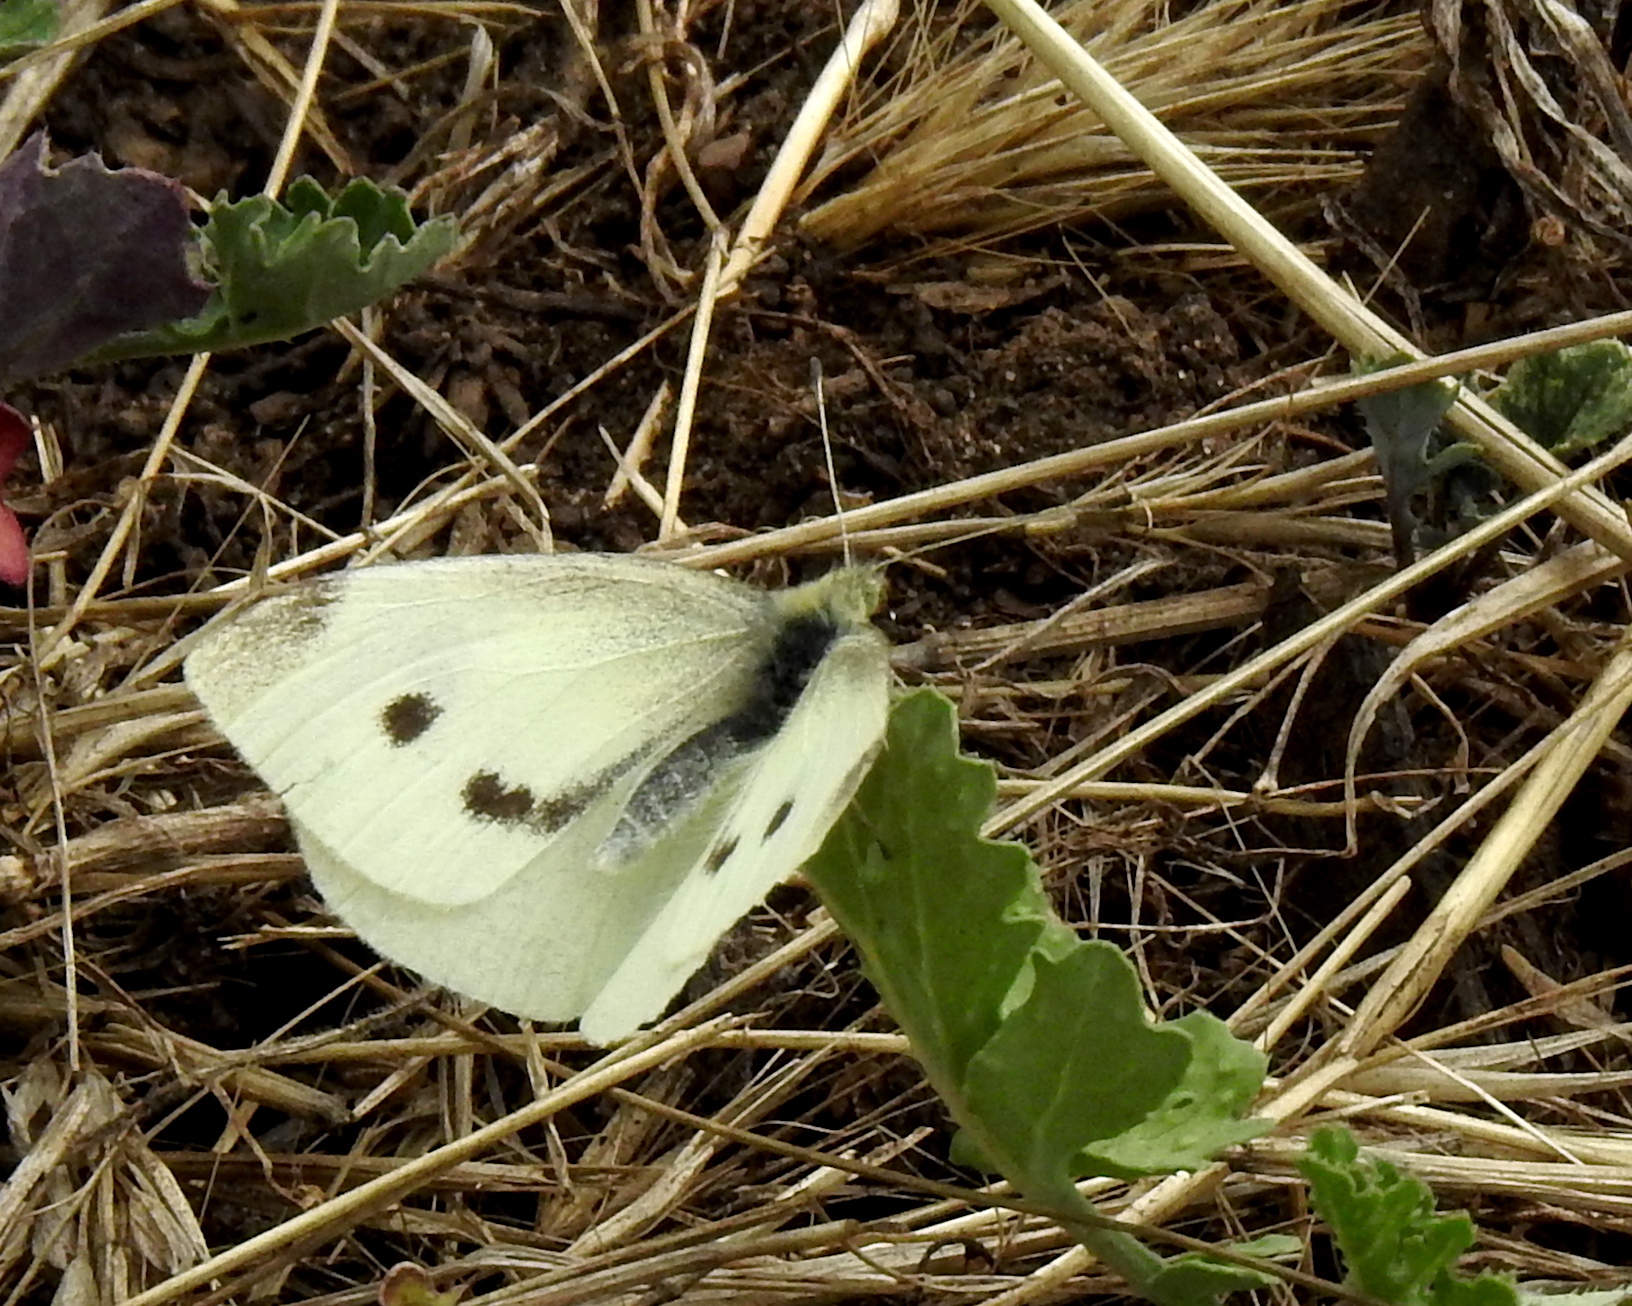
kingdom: Animalia
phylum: Arthropoda
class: Insecta
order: Lepidoptera
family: Pieridae
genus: Pieris
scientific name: Pieris rapae
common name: Small white
